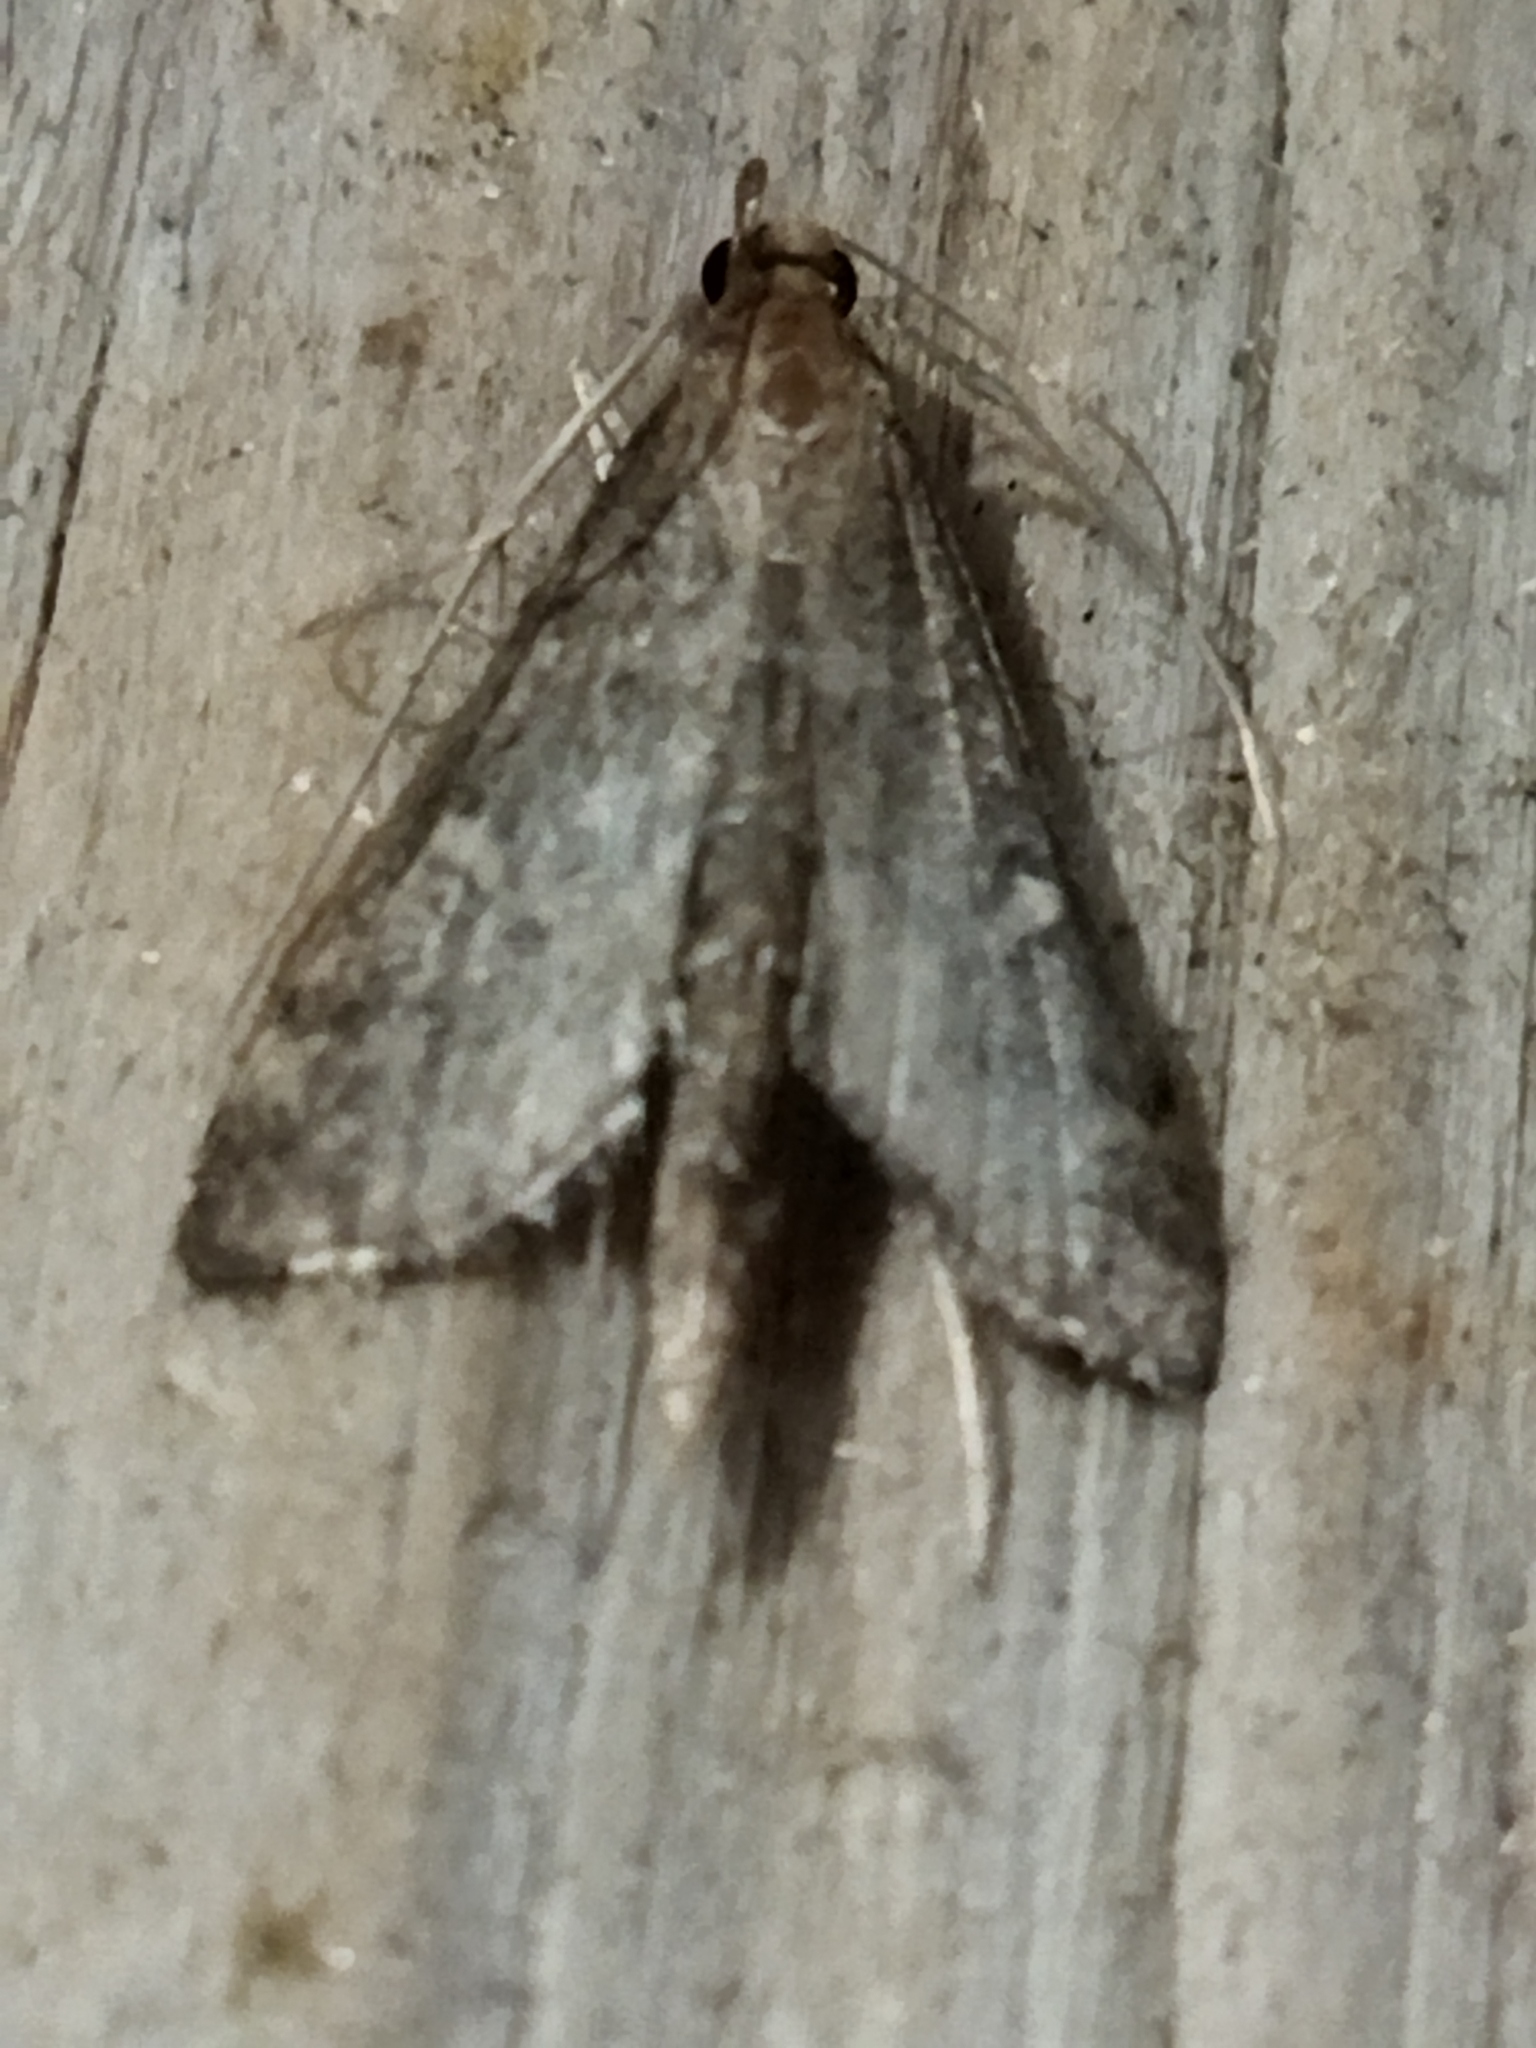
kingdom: Animalia
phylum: Arthropoda
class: Insecta
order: Lepidoptera
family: Crambidae
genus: Stenia
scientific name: Stenia Dolicharthria punctalis
